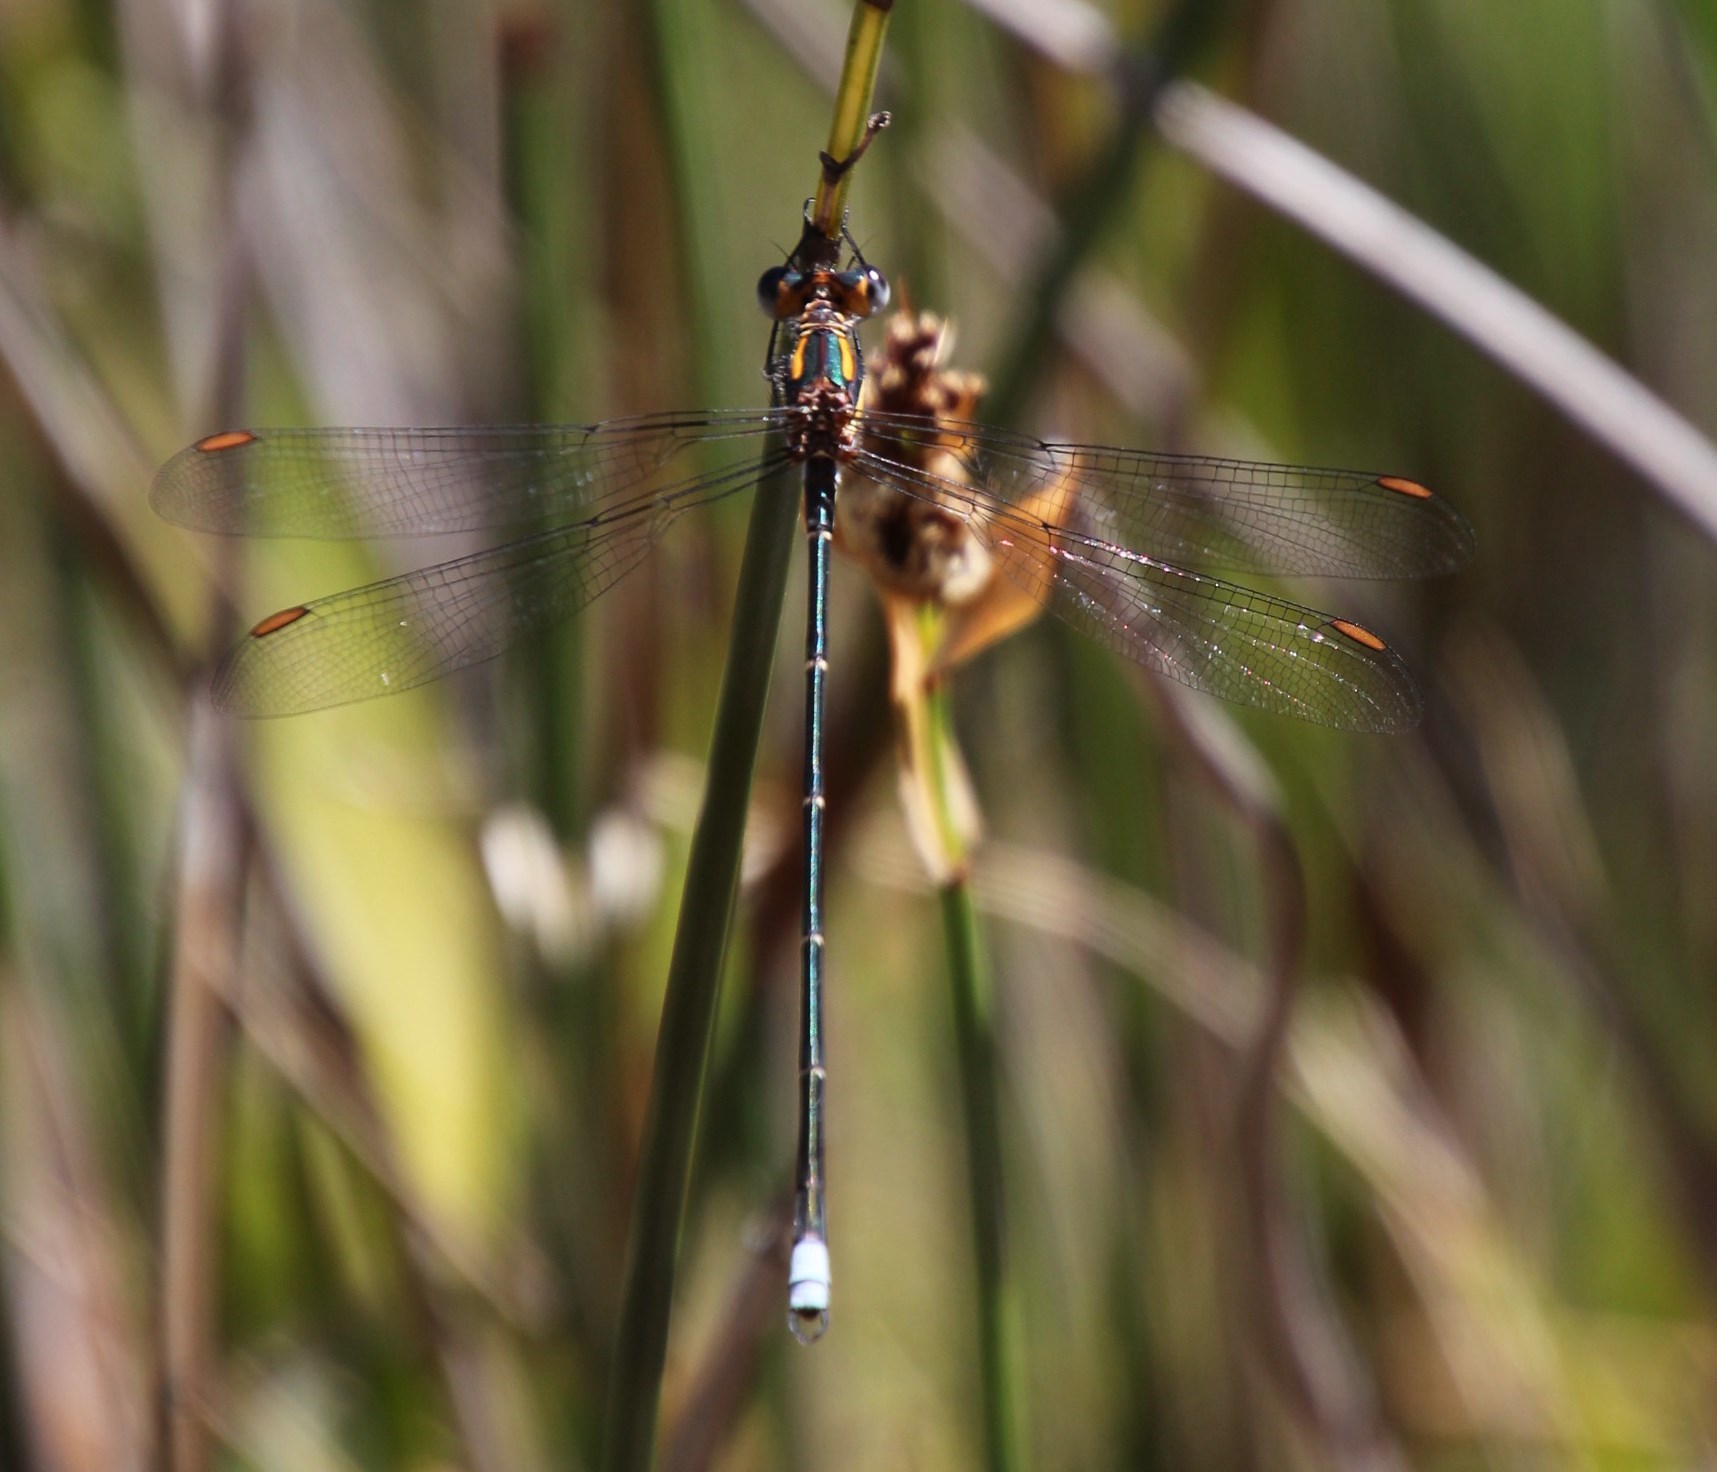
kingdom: Animalia
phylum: Arthropoda
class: Insecta
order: Odonata
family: Synlestidae
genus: Chlorolestes
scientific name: Chlorolestes conspicuus
